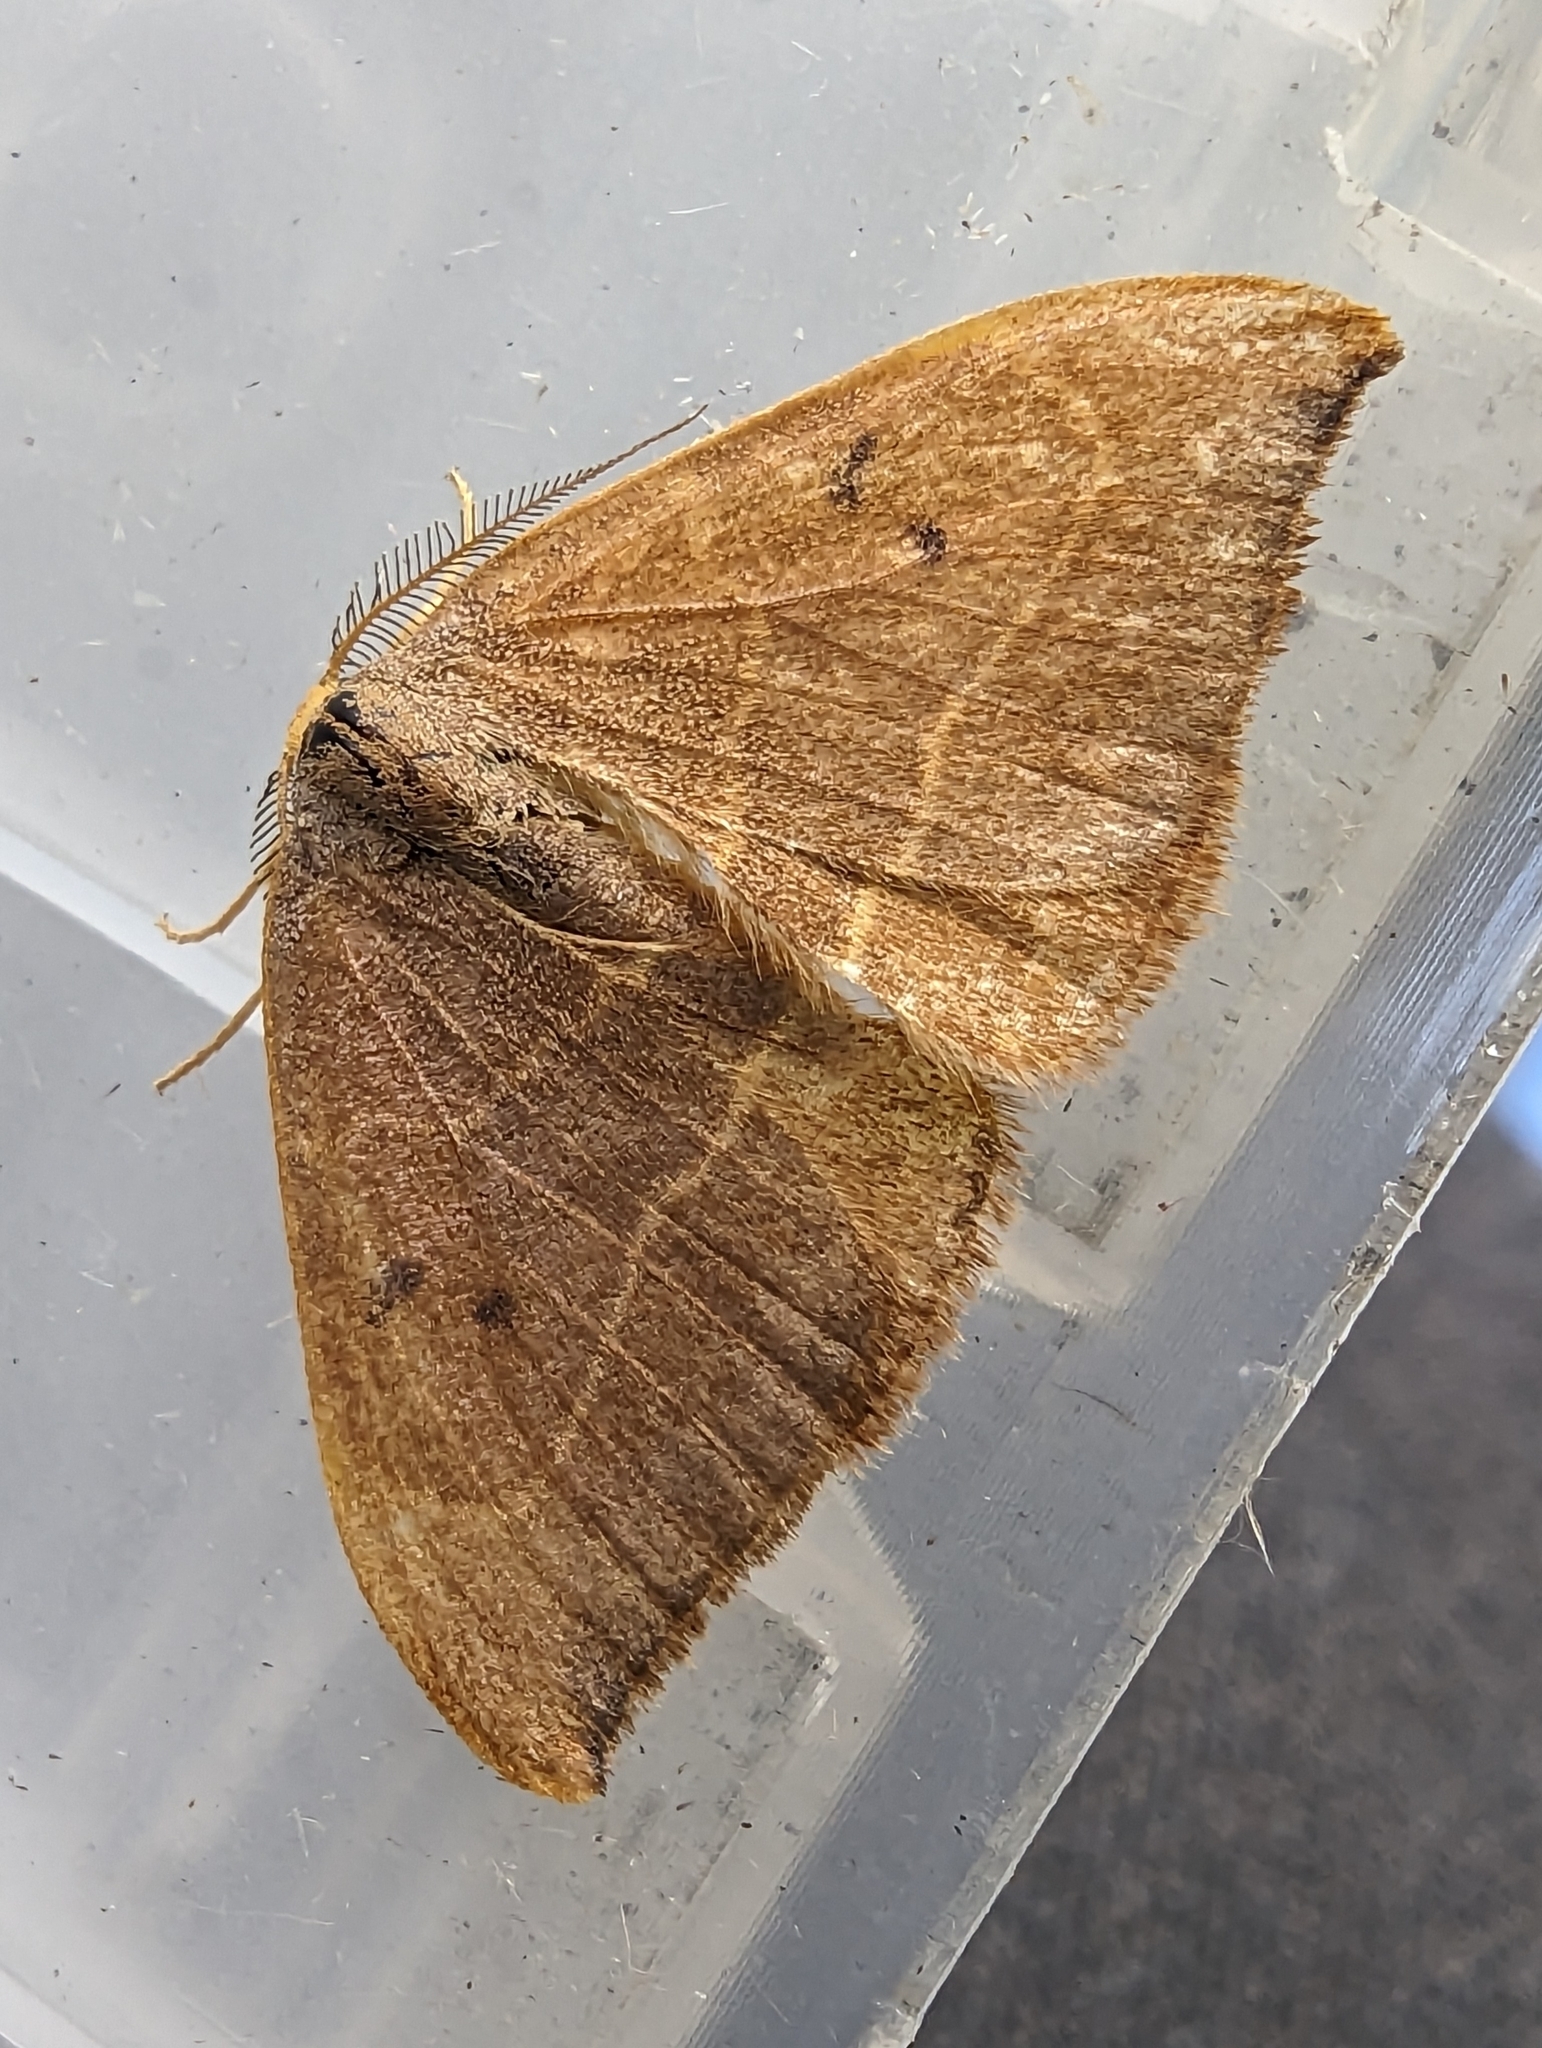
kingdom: Animalia
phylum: Arthropoda
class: Insecta
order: Lepidoptera
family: Drepanidae
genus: Watsonalla
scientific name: Watsonalla binaria
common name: Oak hook-tip
